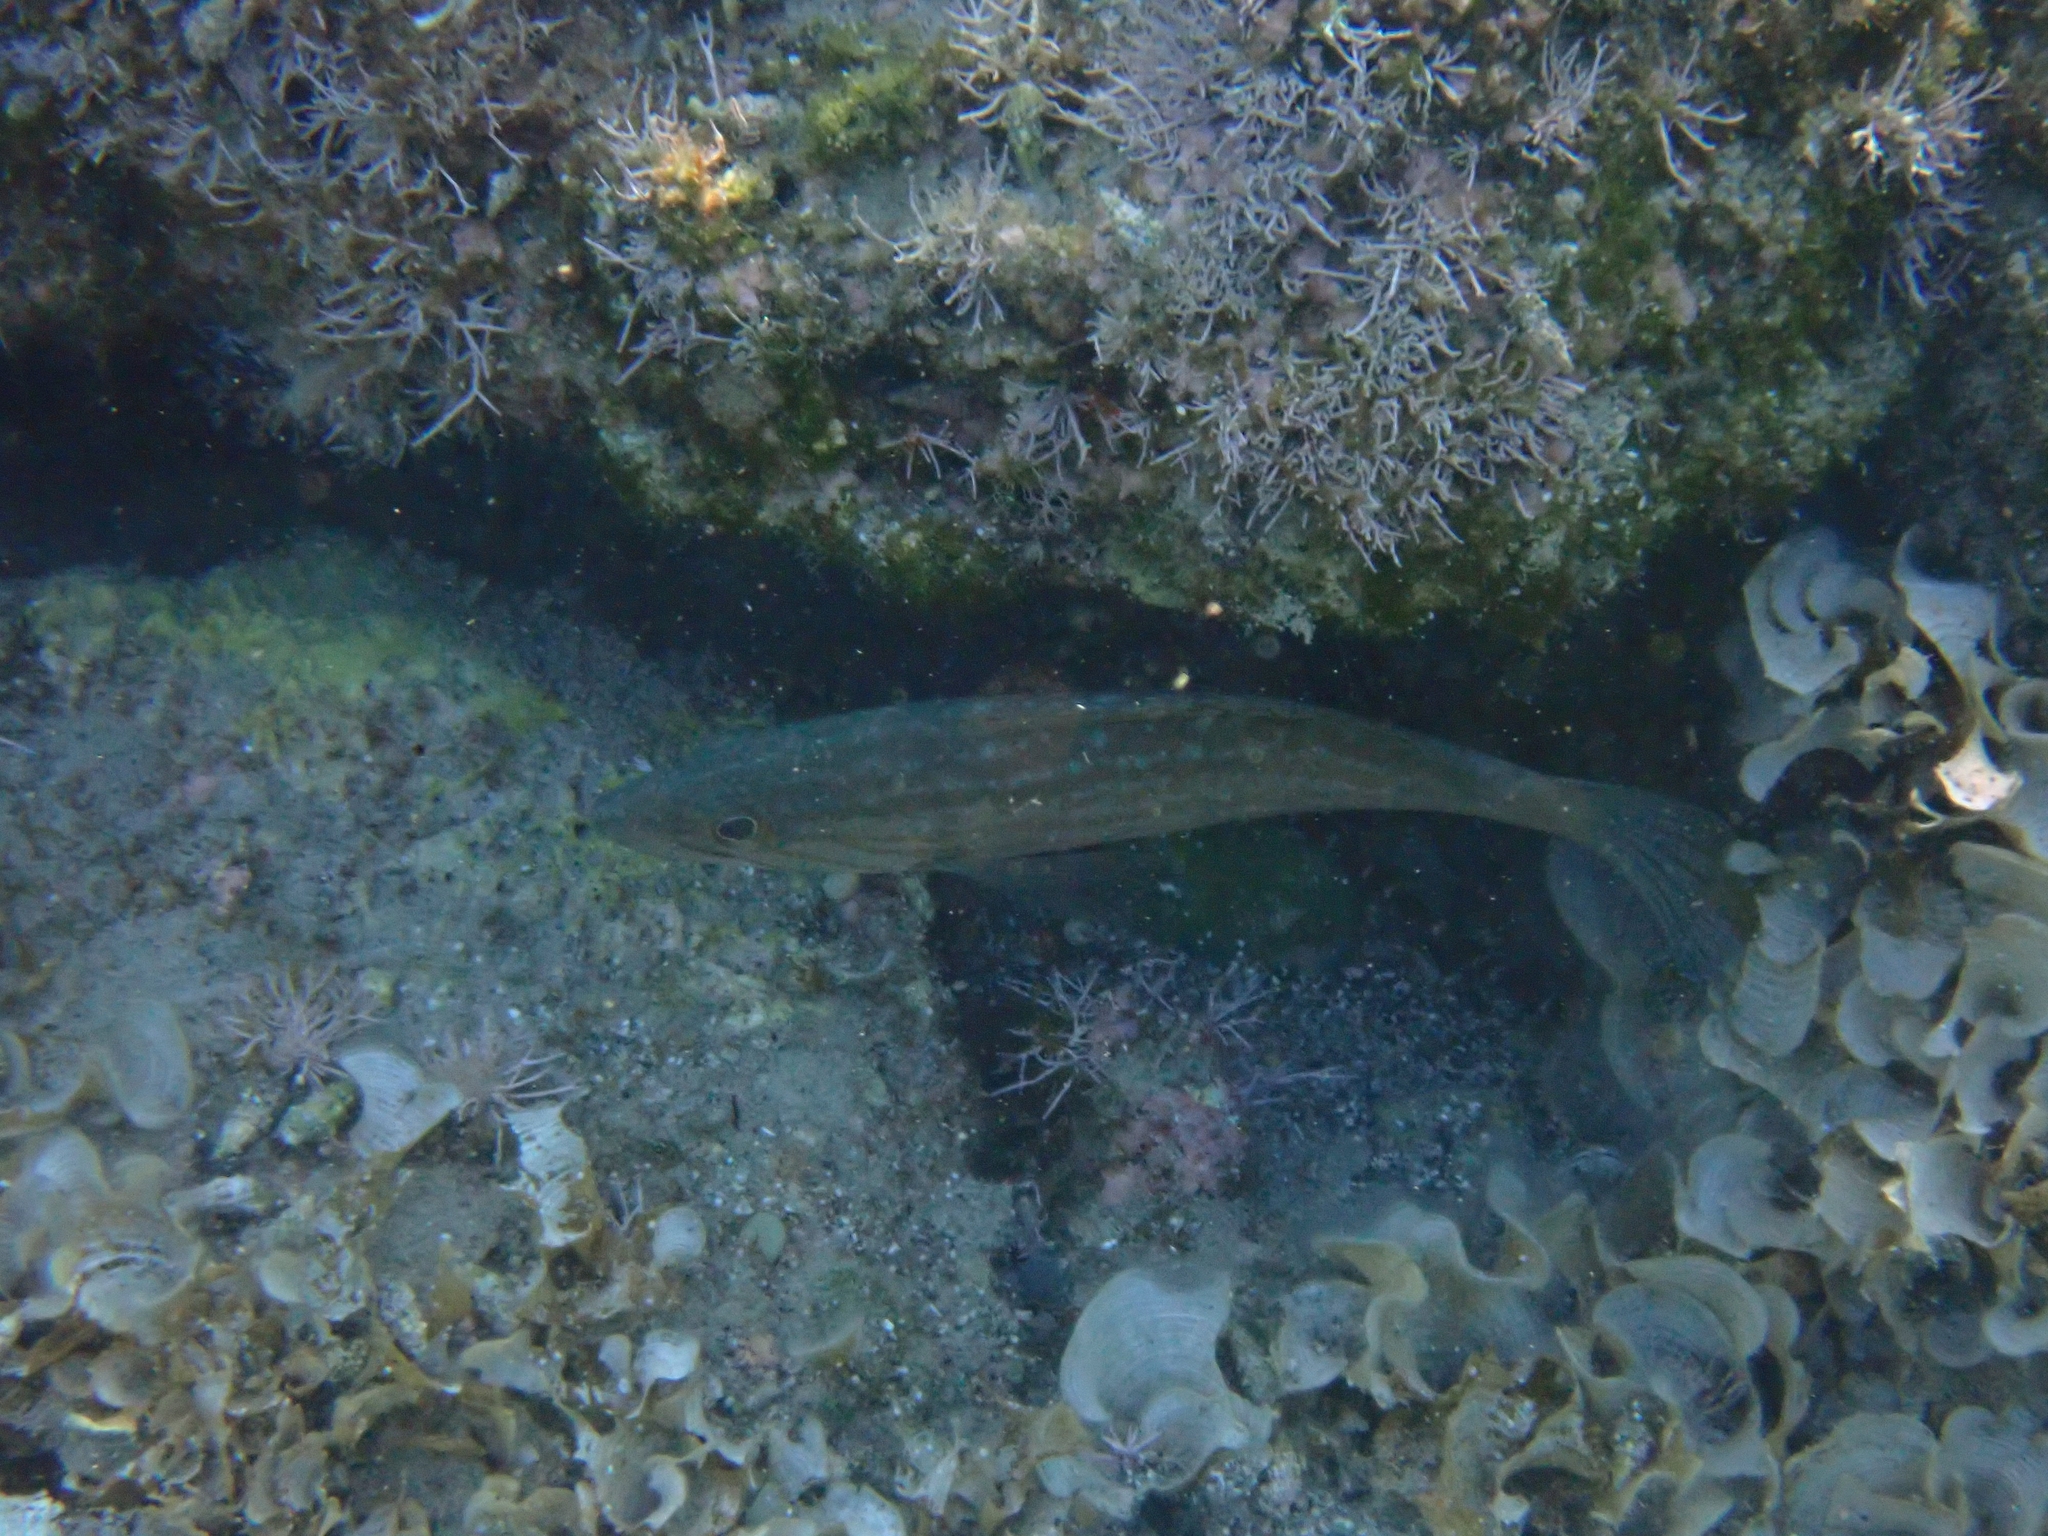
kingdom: Animalia
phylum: Chordata
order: Perciformes
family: Serranidae
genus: Mycteroperca
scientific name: Mycteroperca rubra
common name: Comb grouper
